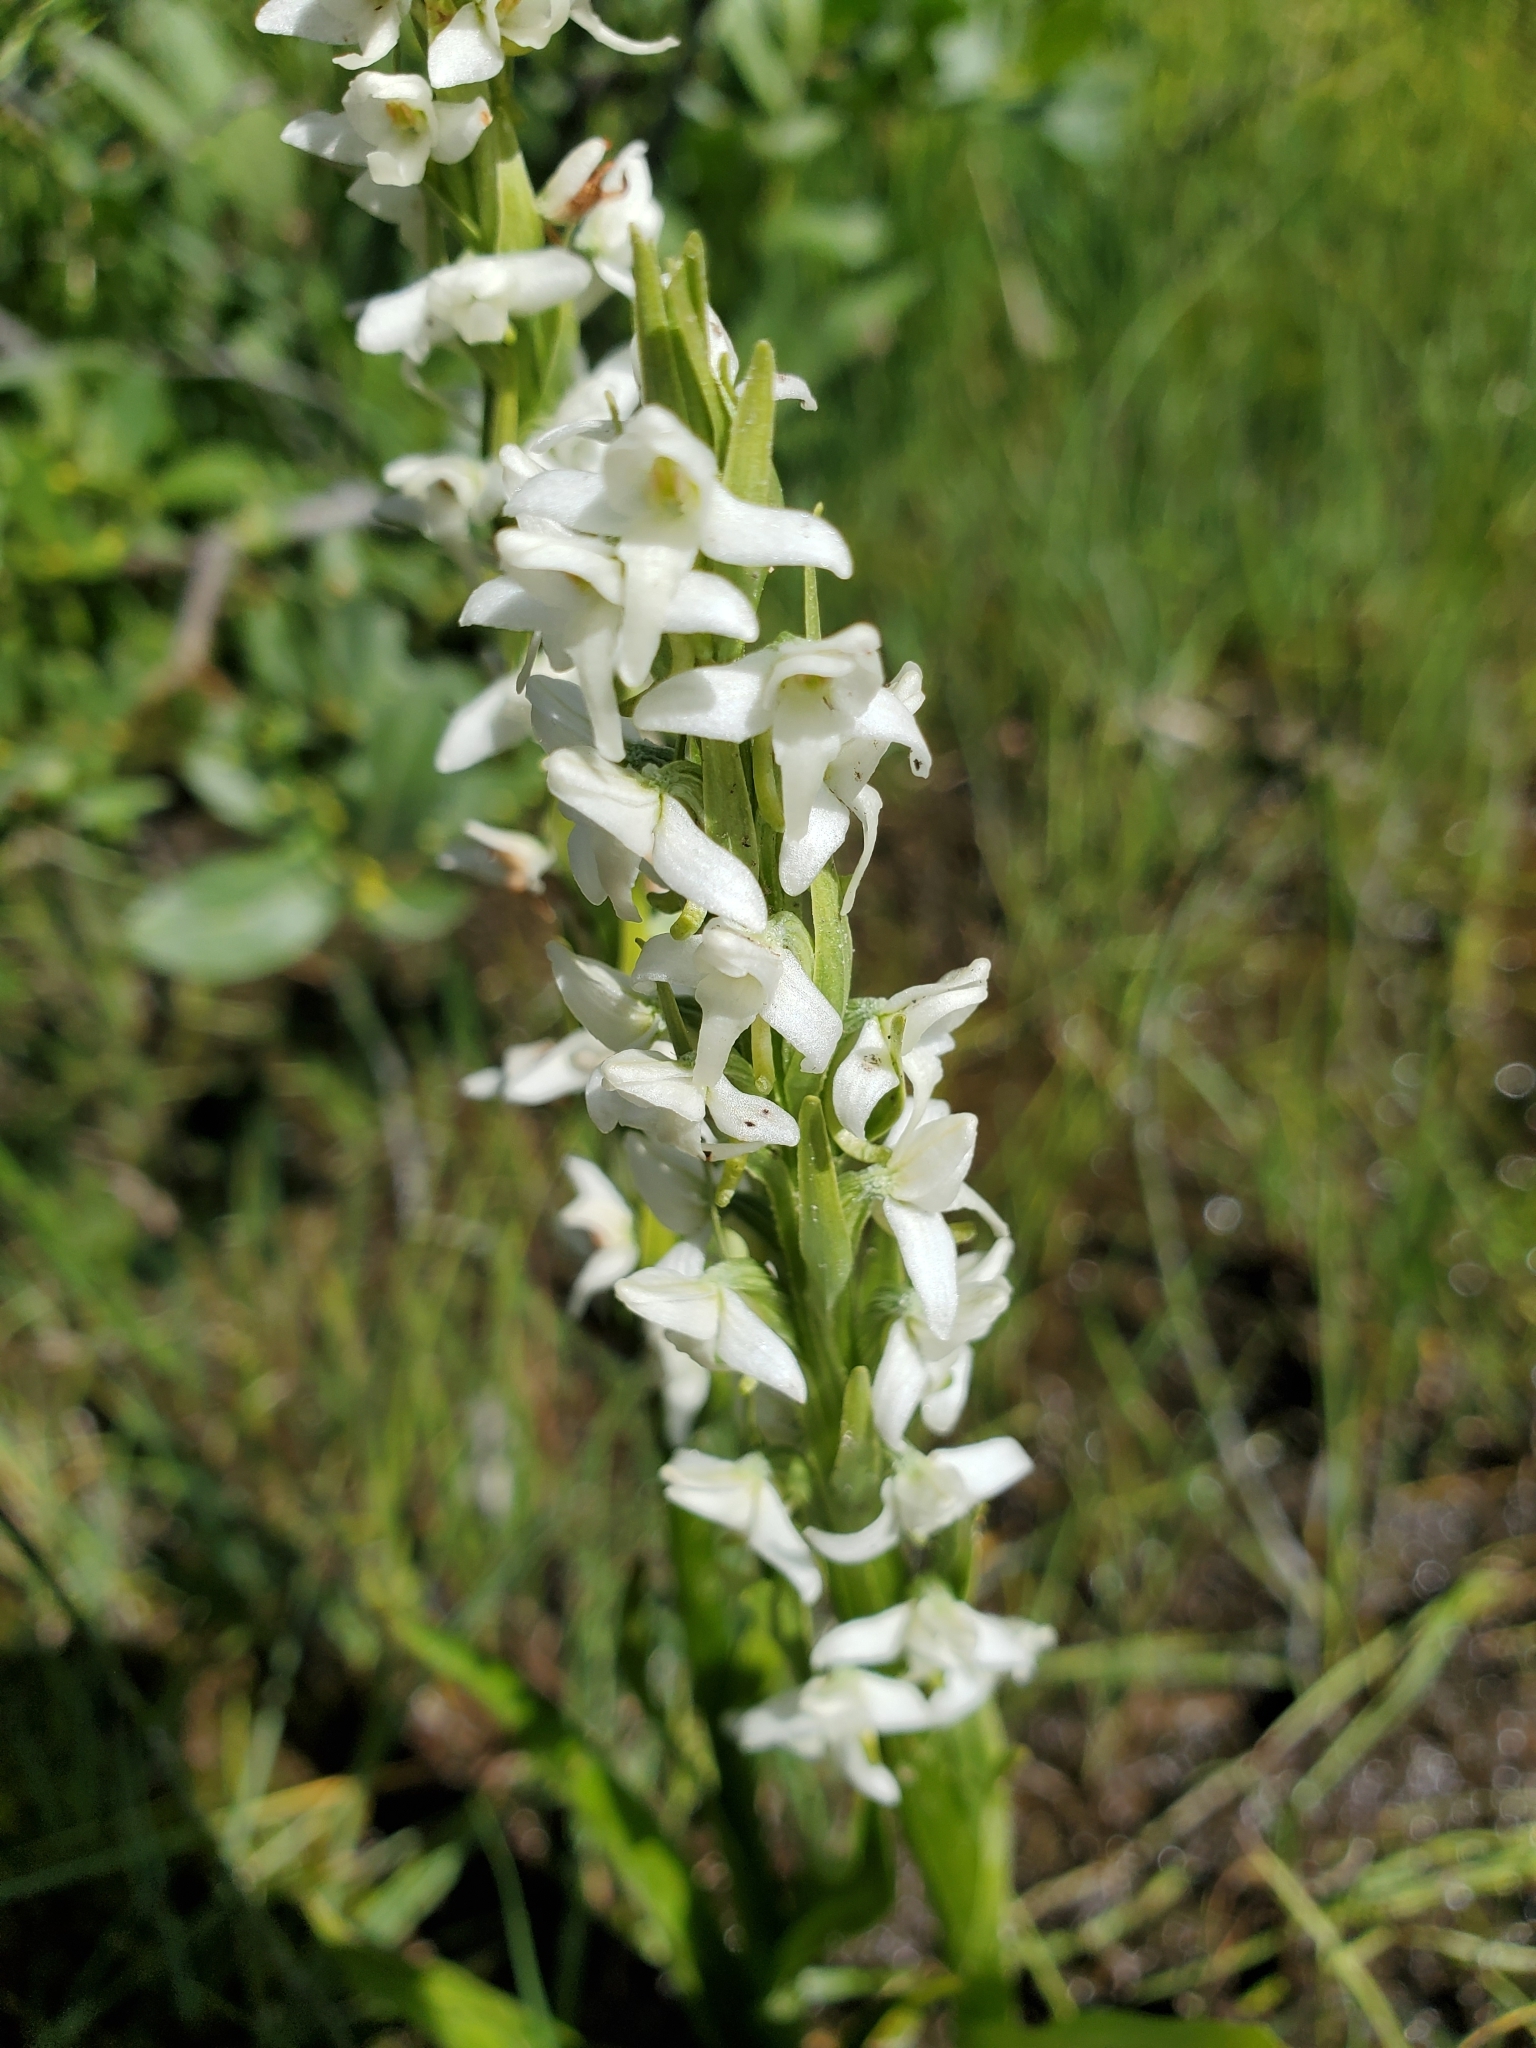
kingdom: Plantae
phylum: Tracheophyta
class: Liliopsida
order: Asparagales
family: Orchidaceae
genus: Platanthera
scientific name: Platanthera dilatata
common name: Bog candles
